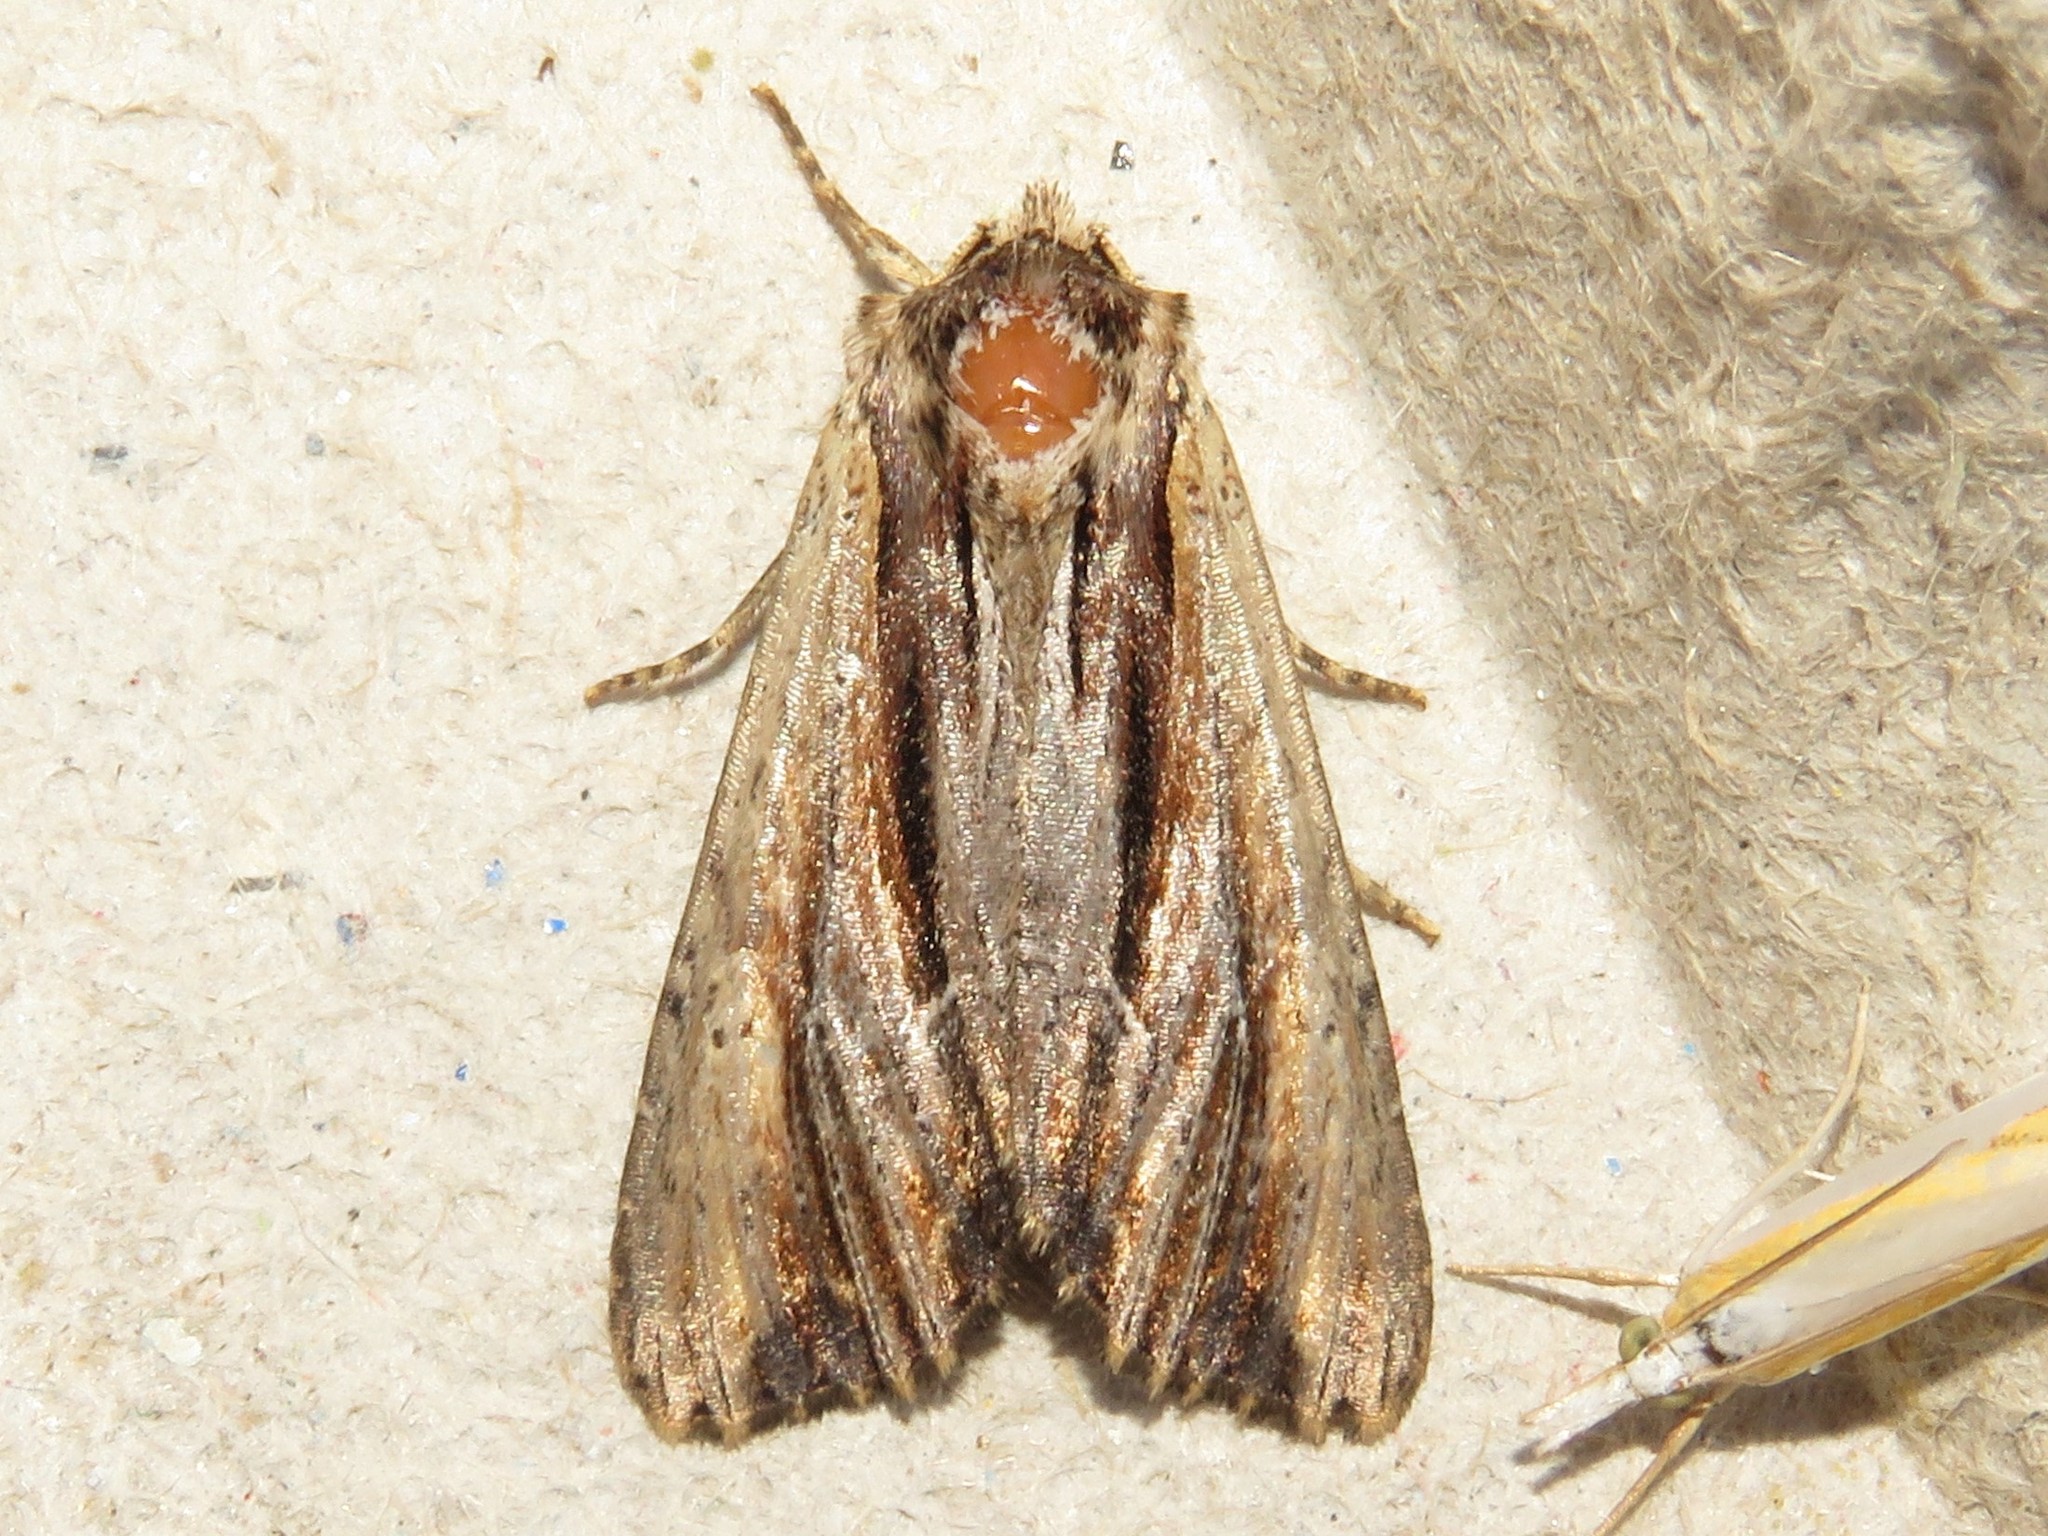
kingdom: Animalia
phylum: Arthropoda
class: Insecta
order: Lepidoptera
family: Noctuidae
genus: Achatia
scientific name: Achatia evicta
